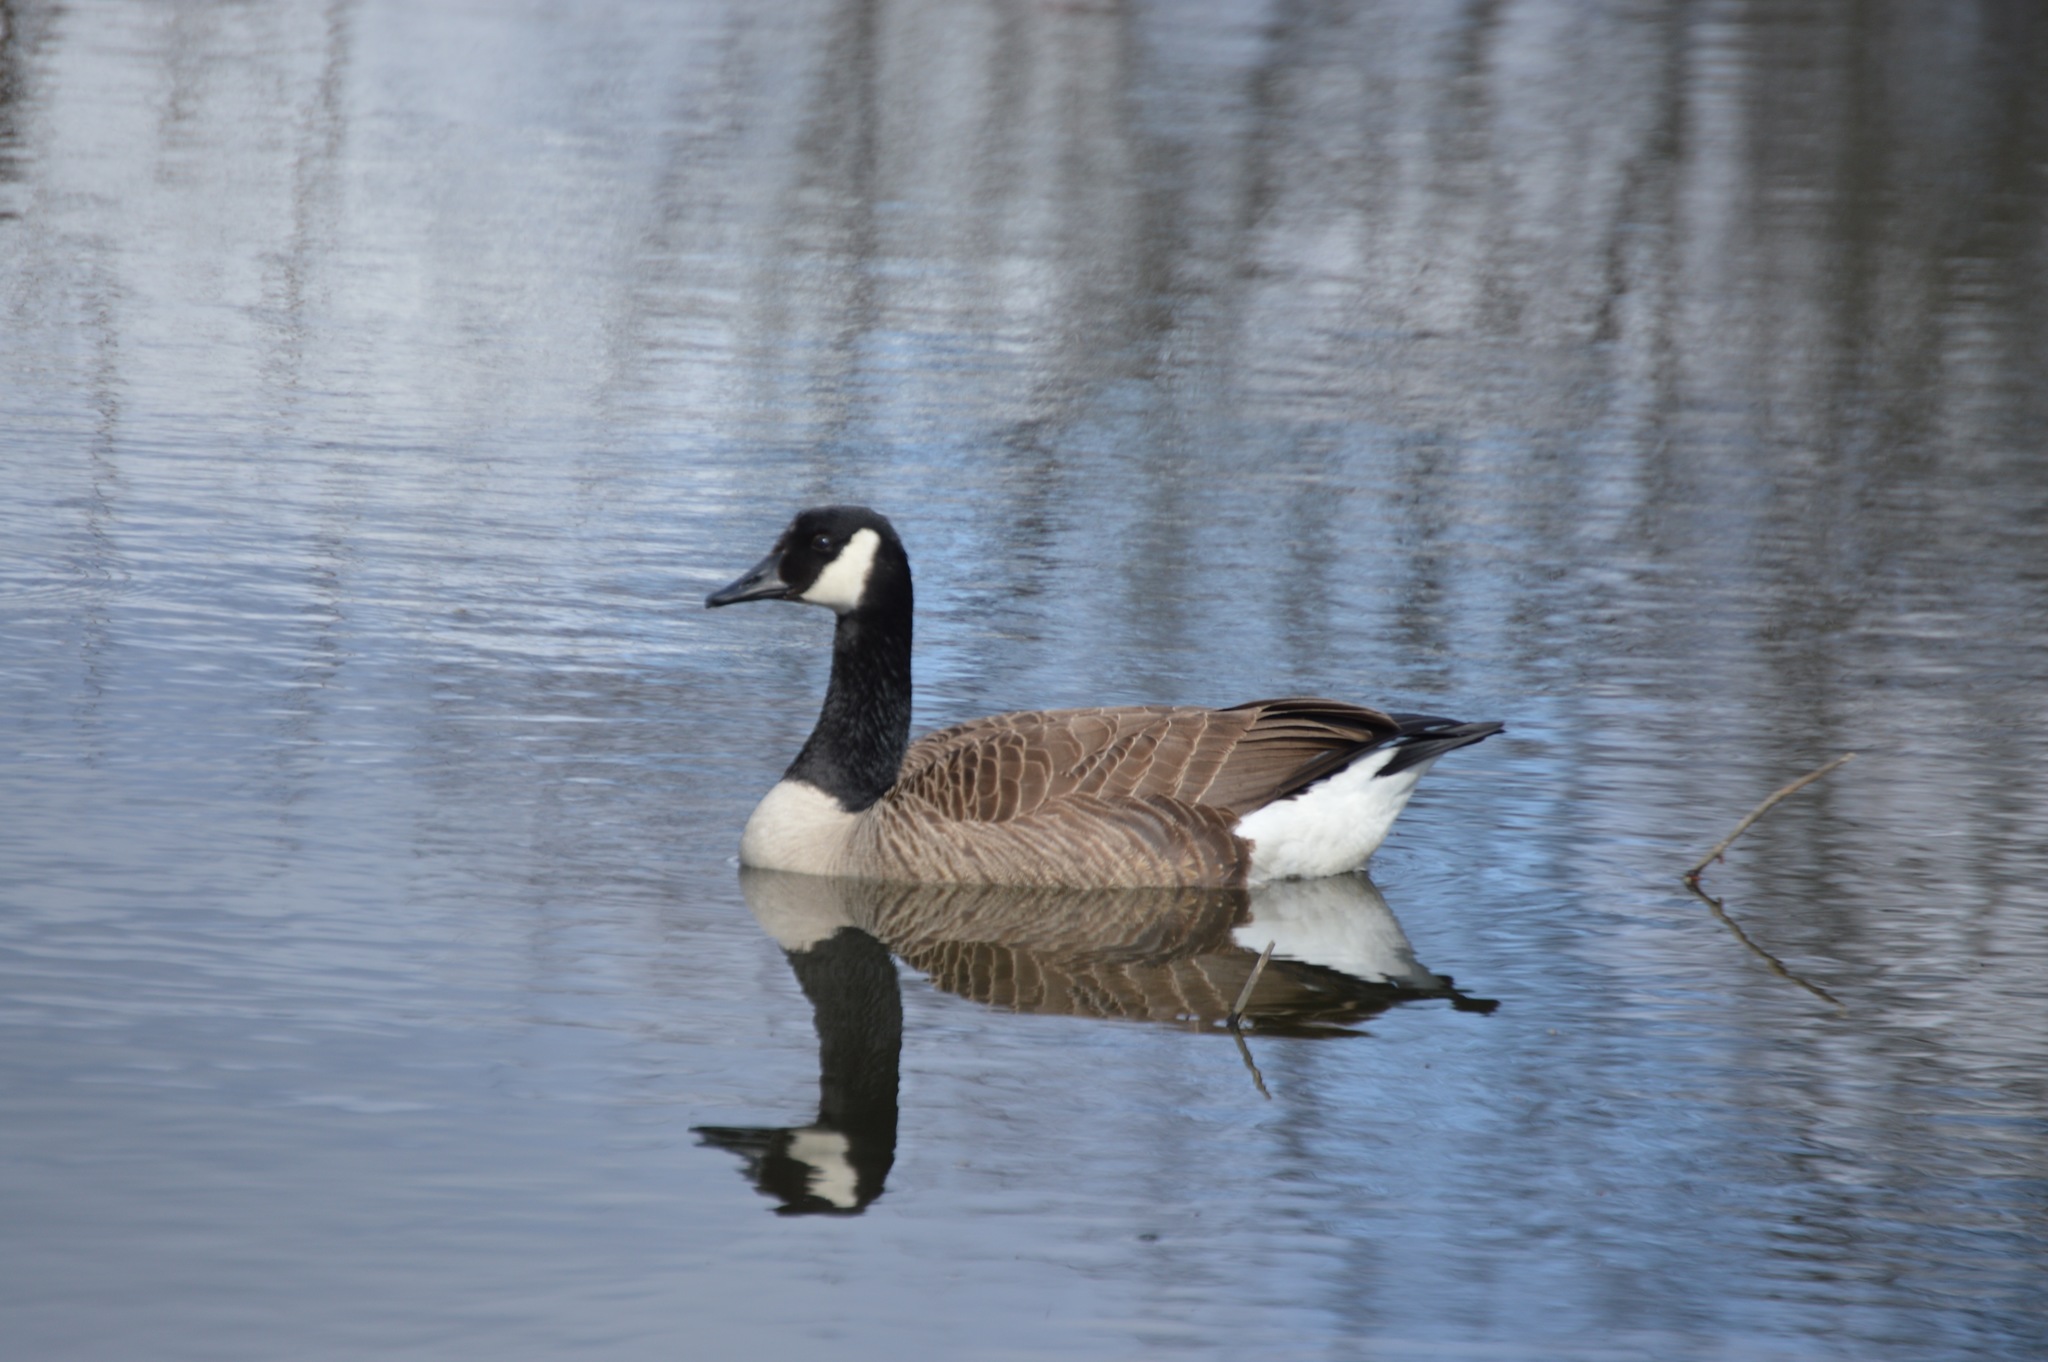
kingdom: Animalia
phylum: Chordata
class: Aves
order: Anseriformes
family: Anatidae
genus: Branta
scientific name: Branta canadensis
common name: Canada goose
